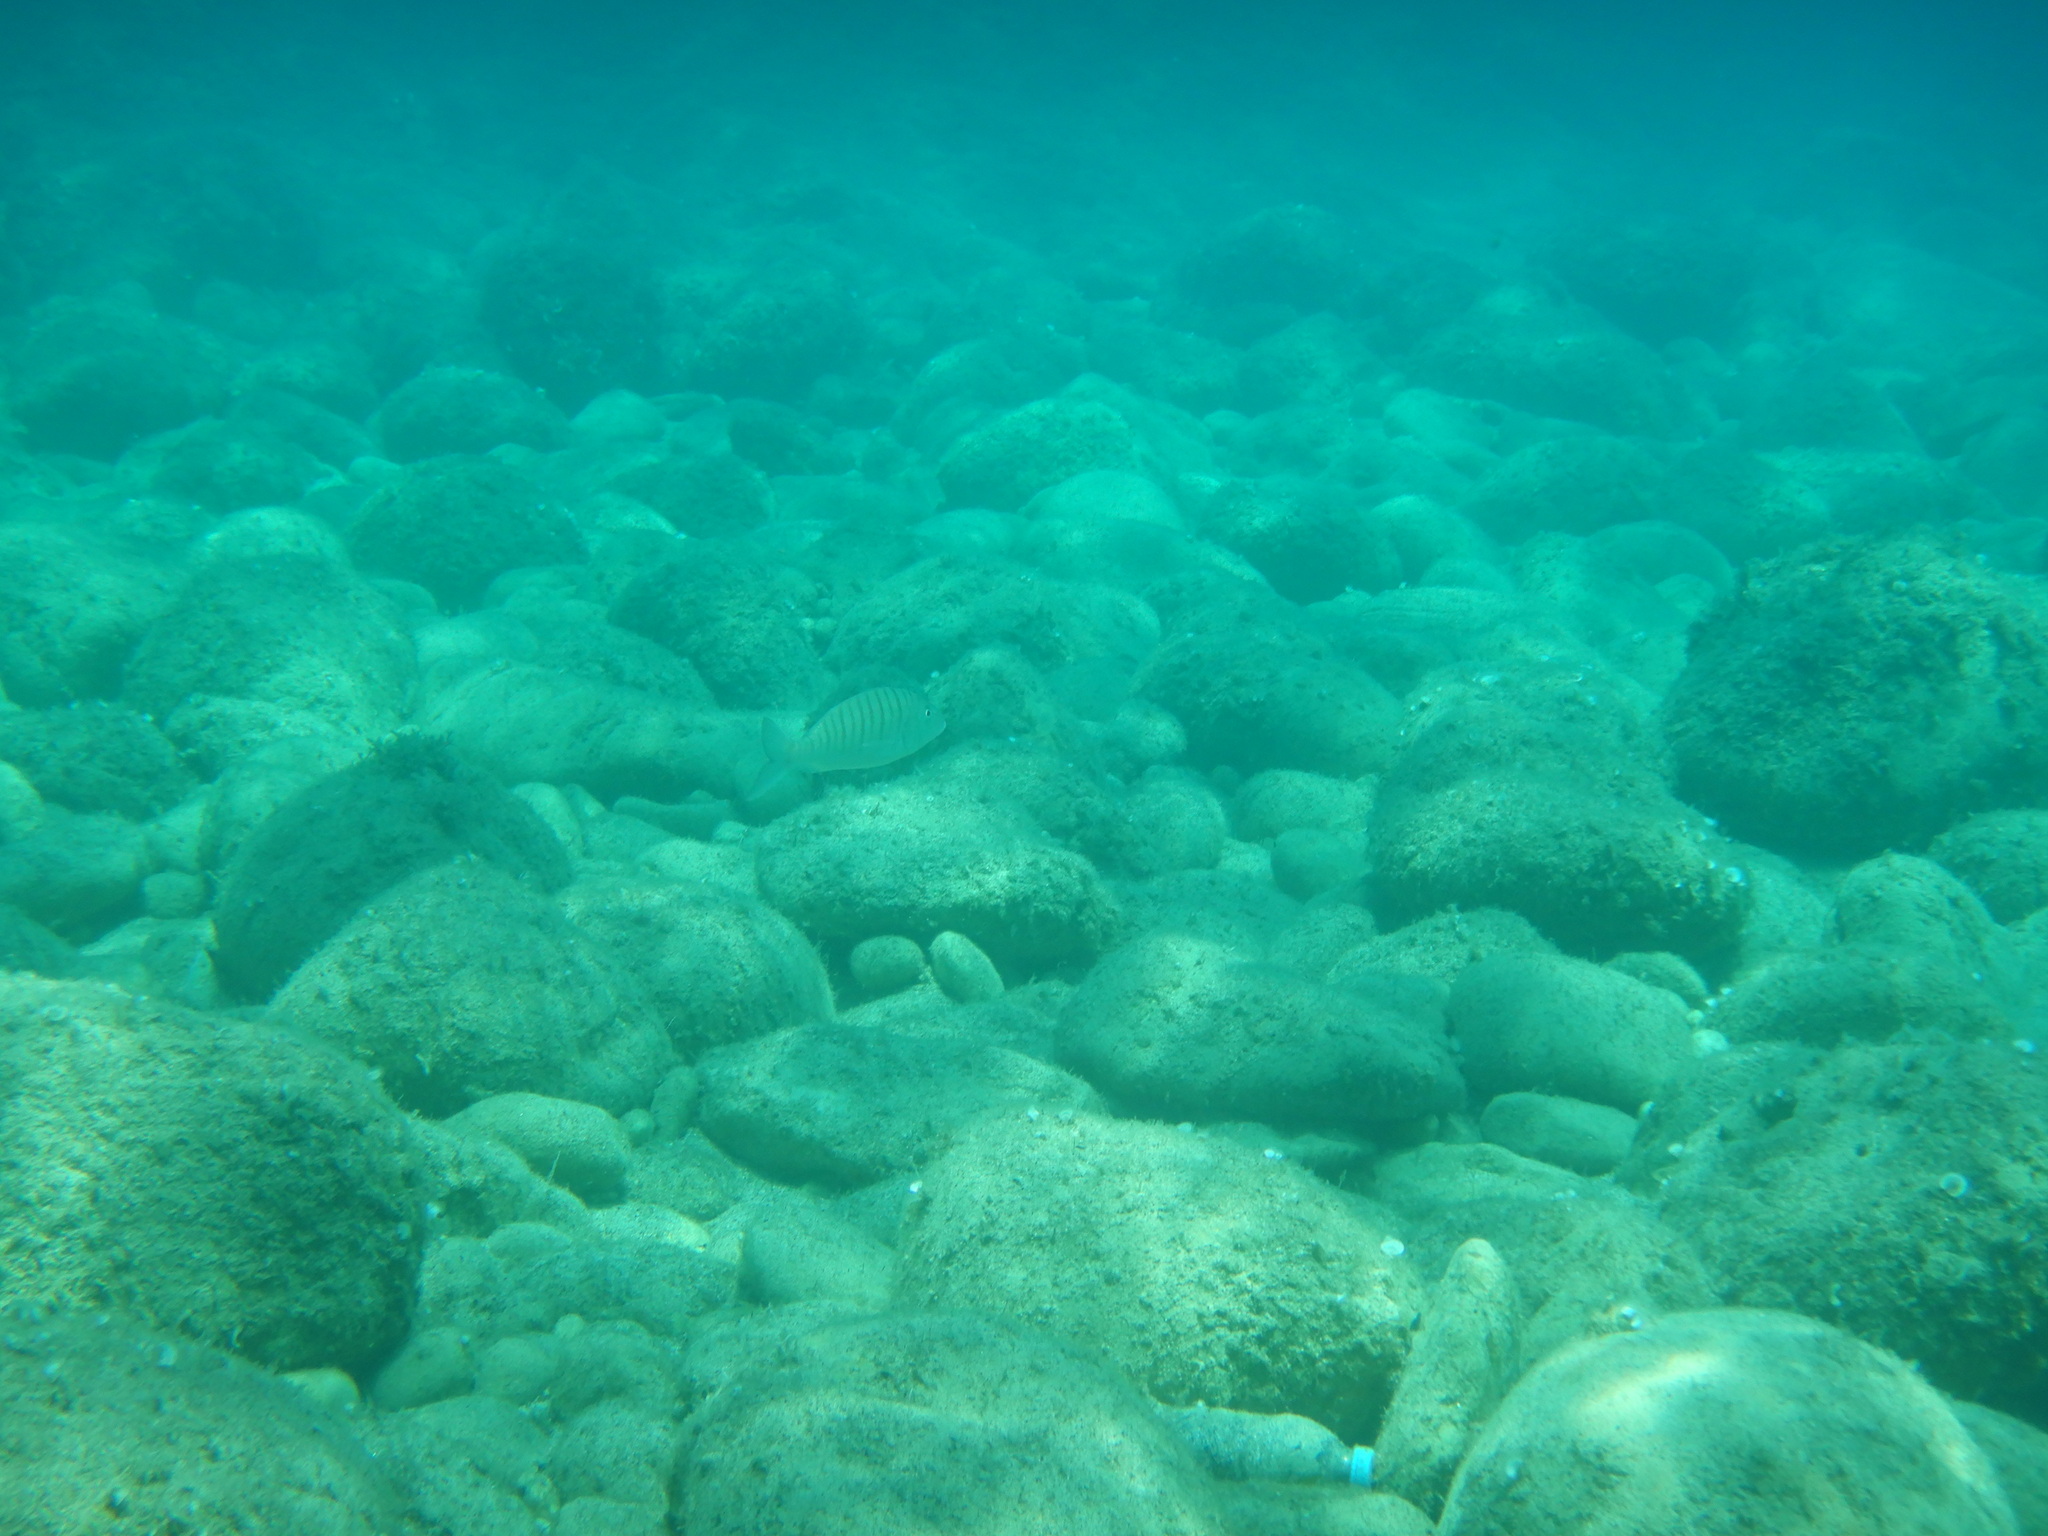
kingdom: Animalia
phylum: Chordata
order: Perciformes
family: Sparidae
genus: Lithognathus
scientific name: Lithognathus mormyrus
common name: Sand steenbras
